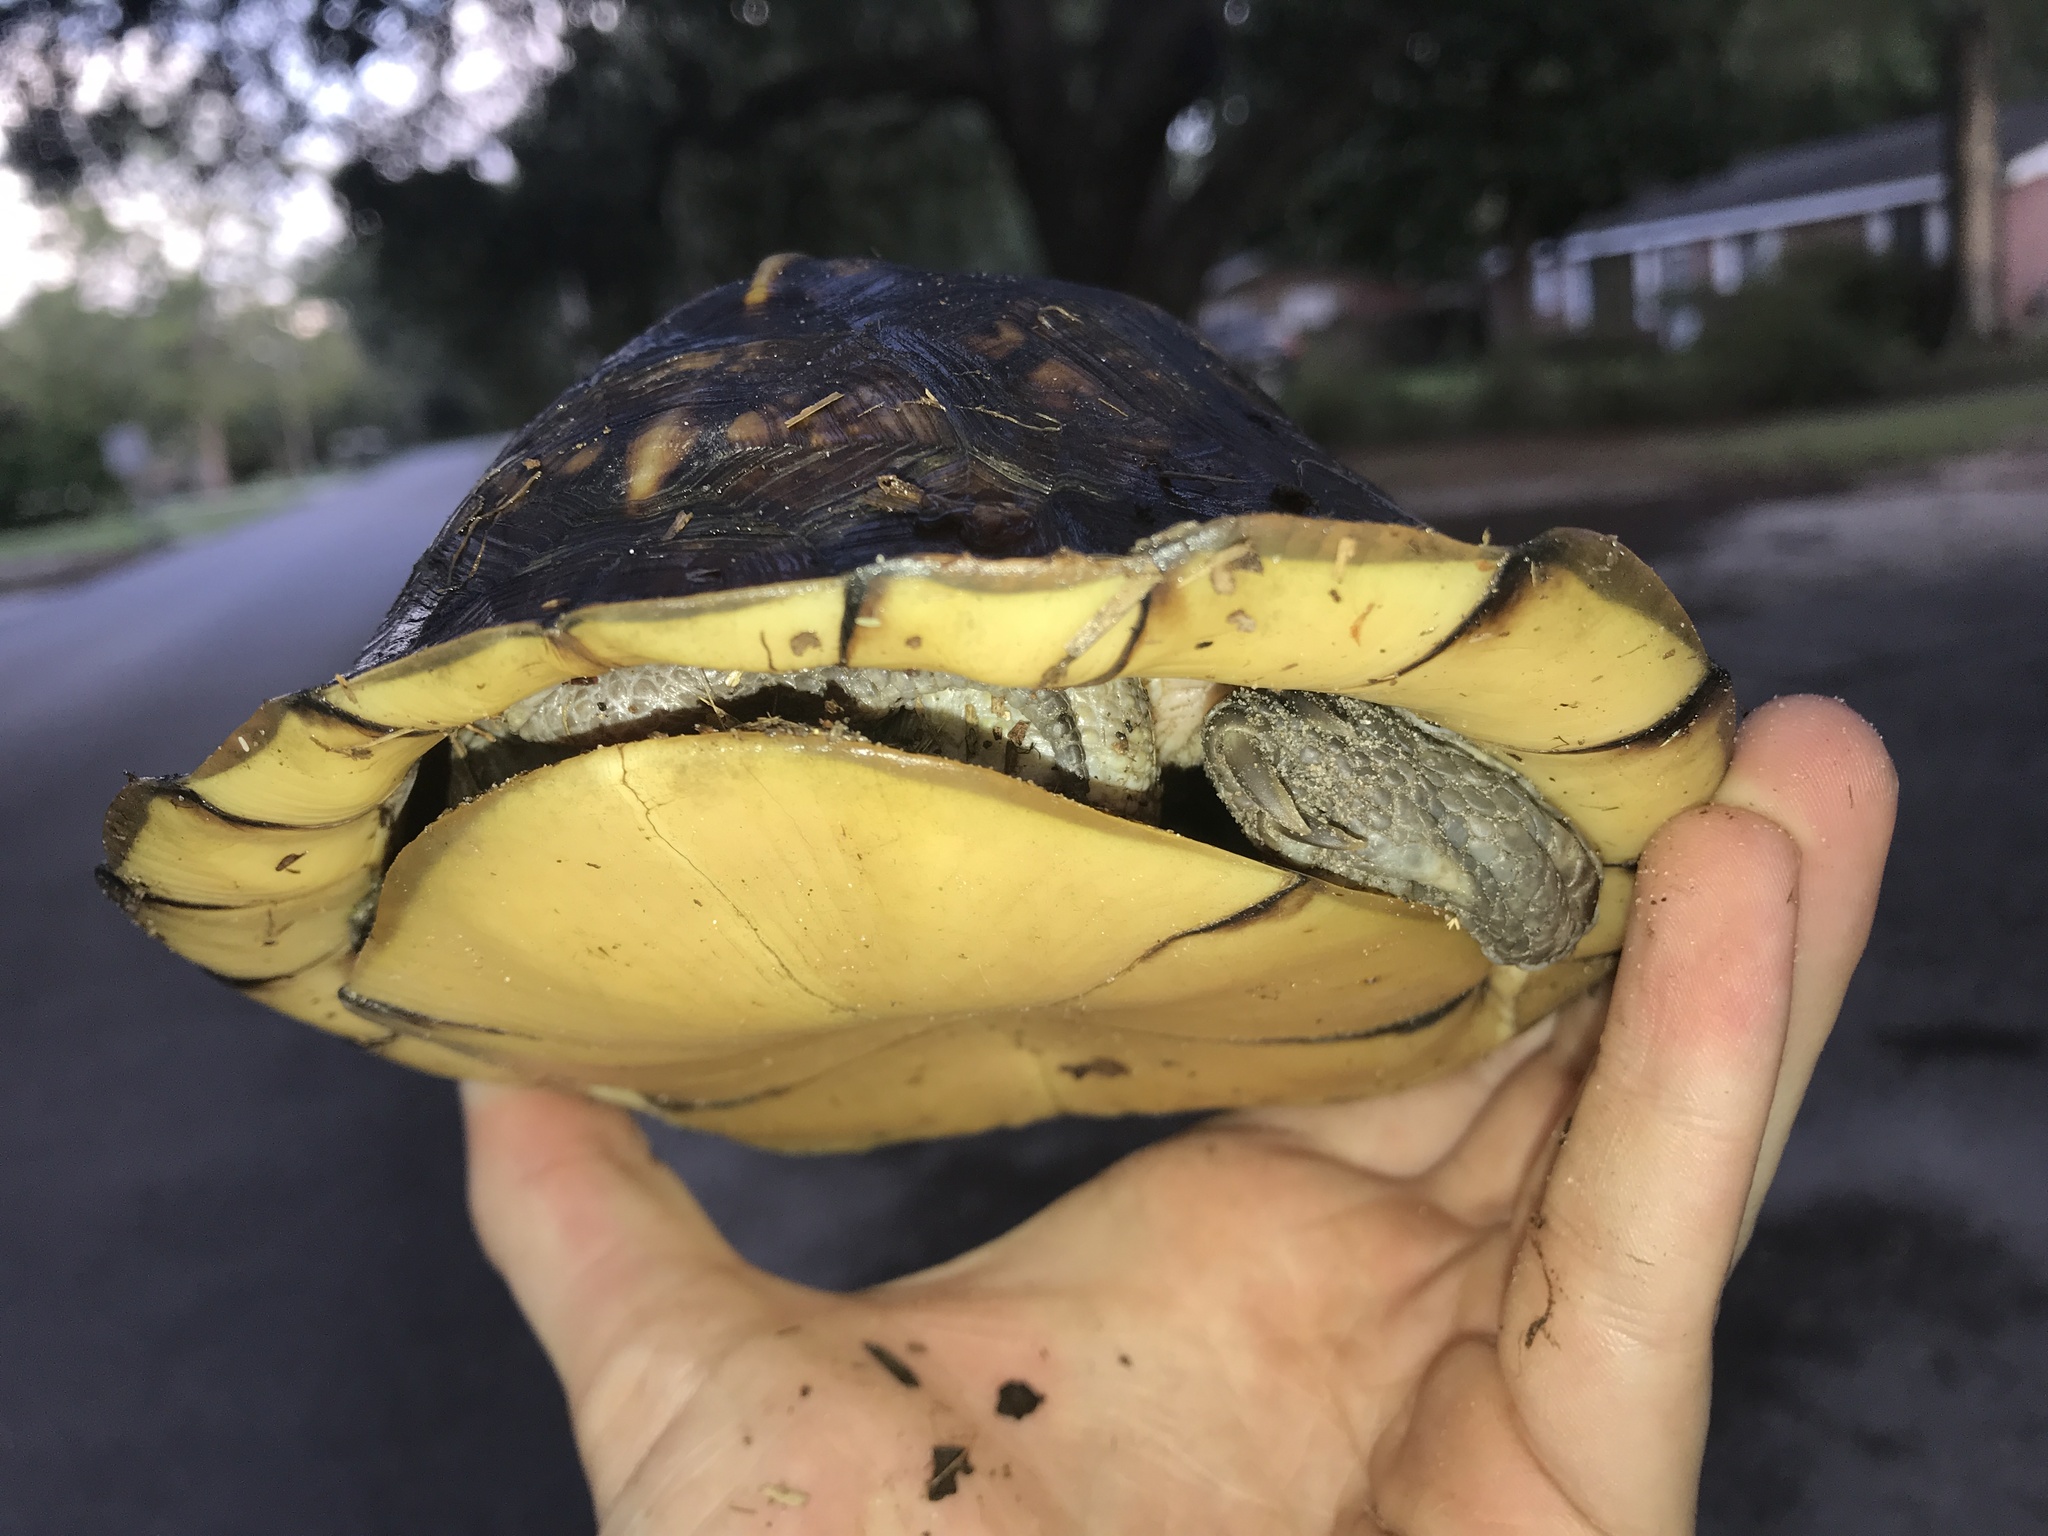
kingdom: Animalia
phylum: Chordata
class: Testudines
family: Emydidae
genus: Terrapene
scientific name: Terrapene carolina
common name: Common box turtle
